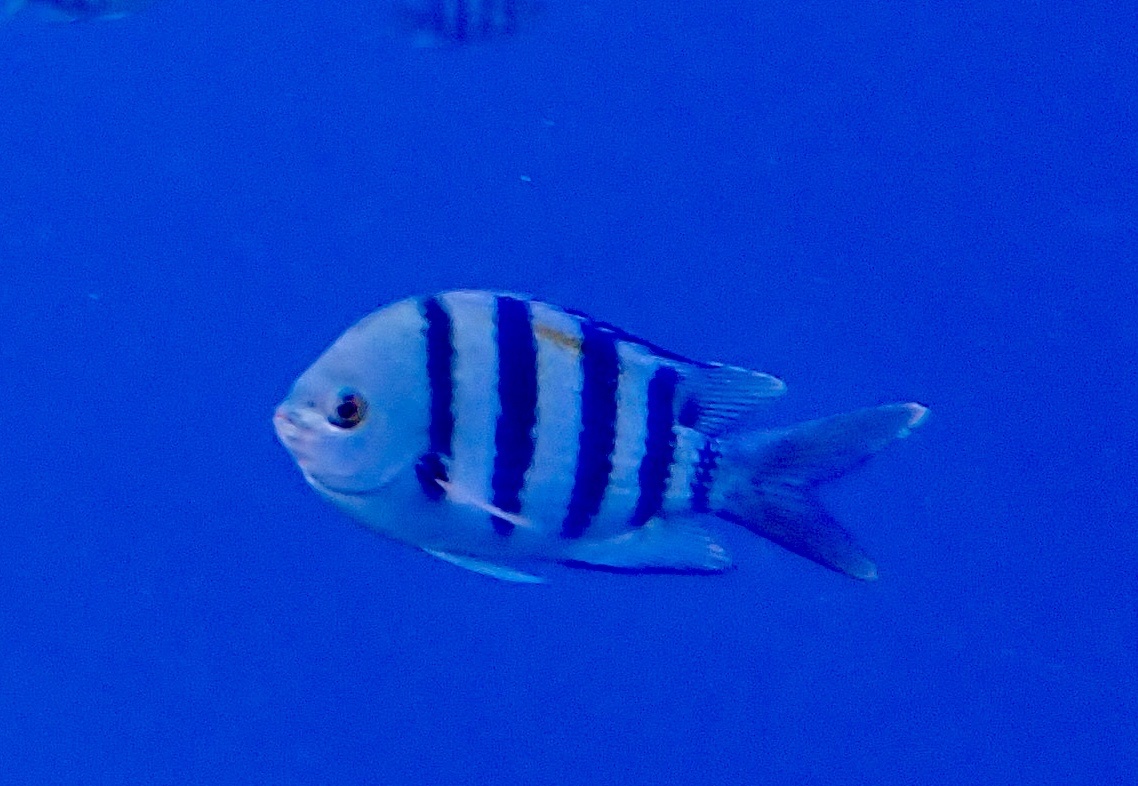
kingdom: Animalia
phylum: Chordata
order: Perciformes
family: Pomacentridae
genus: Abudefduf
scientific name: Abudefduf vaigiensis
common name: Indo-pacific sergeant
